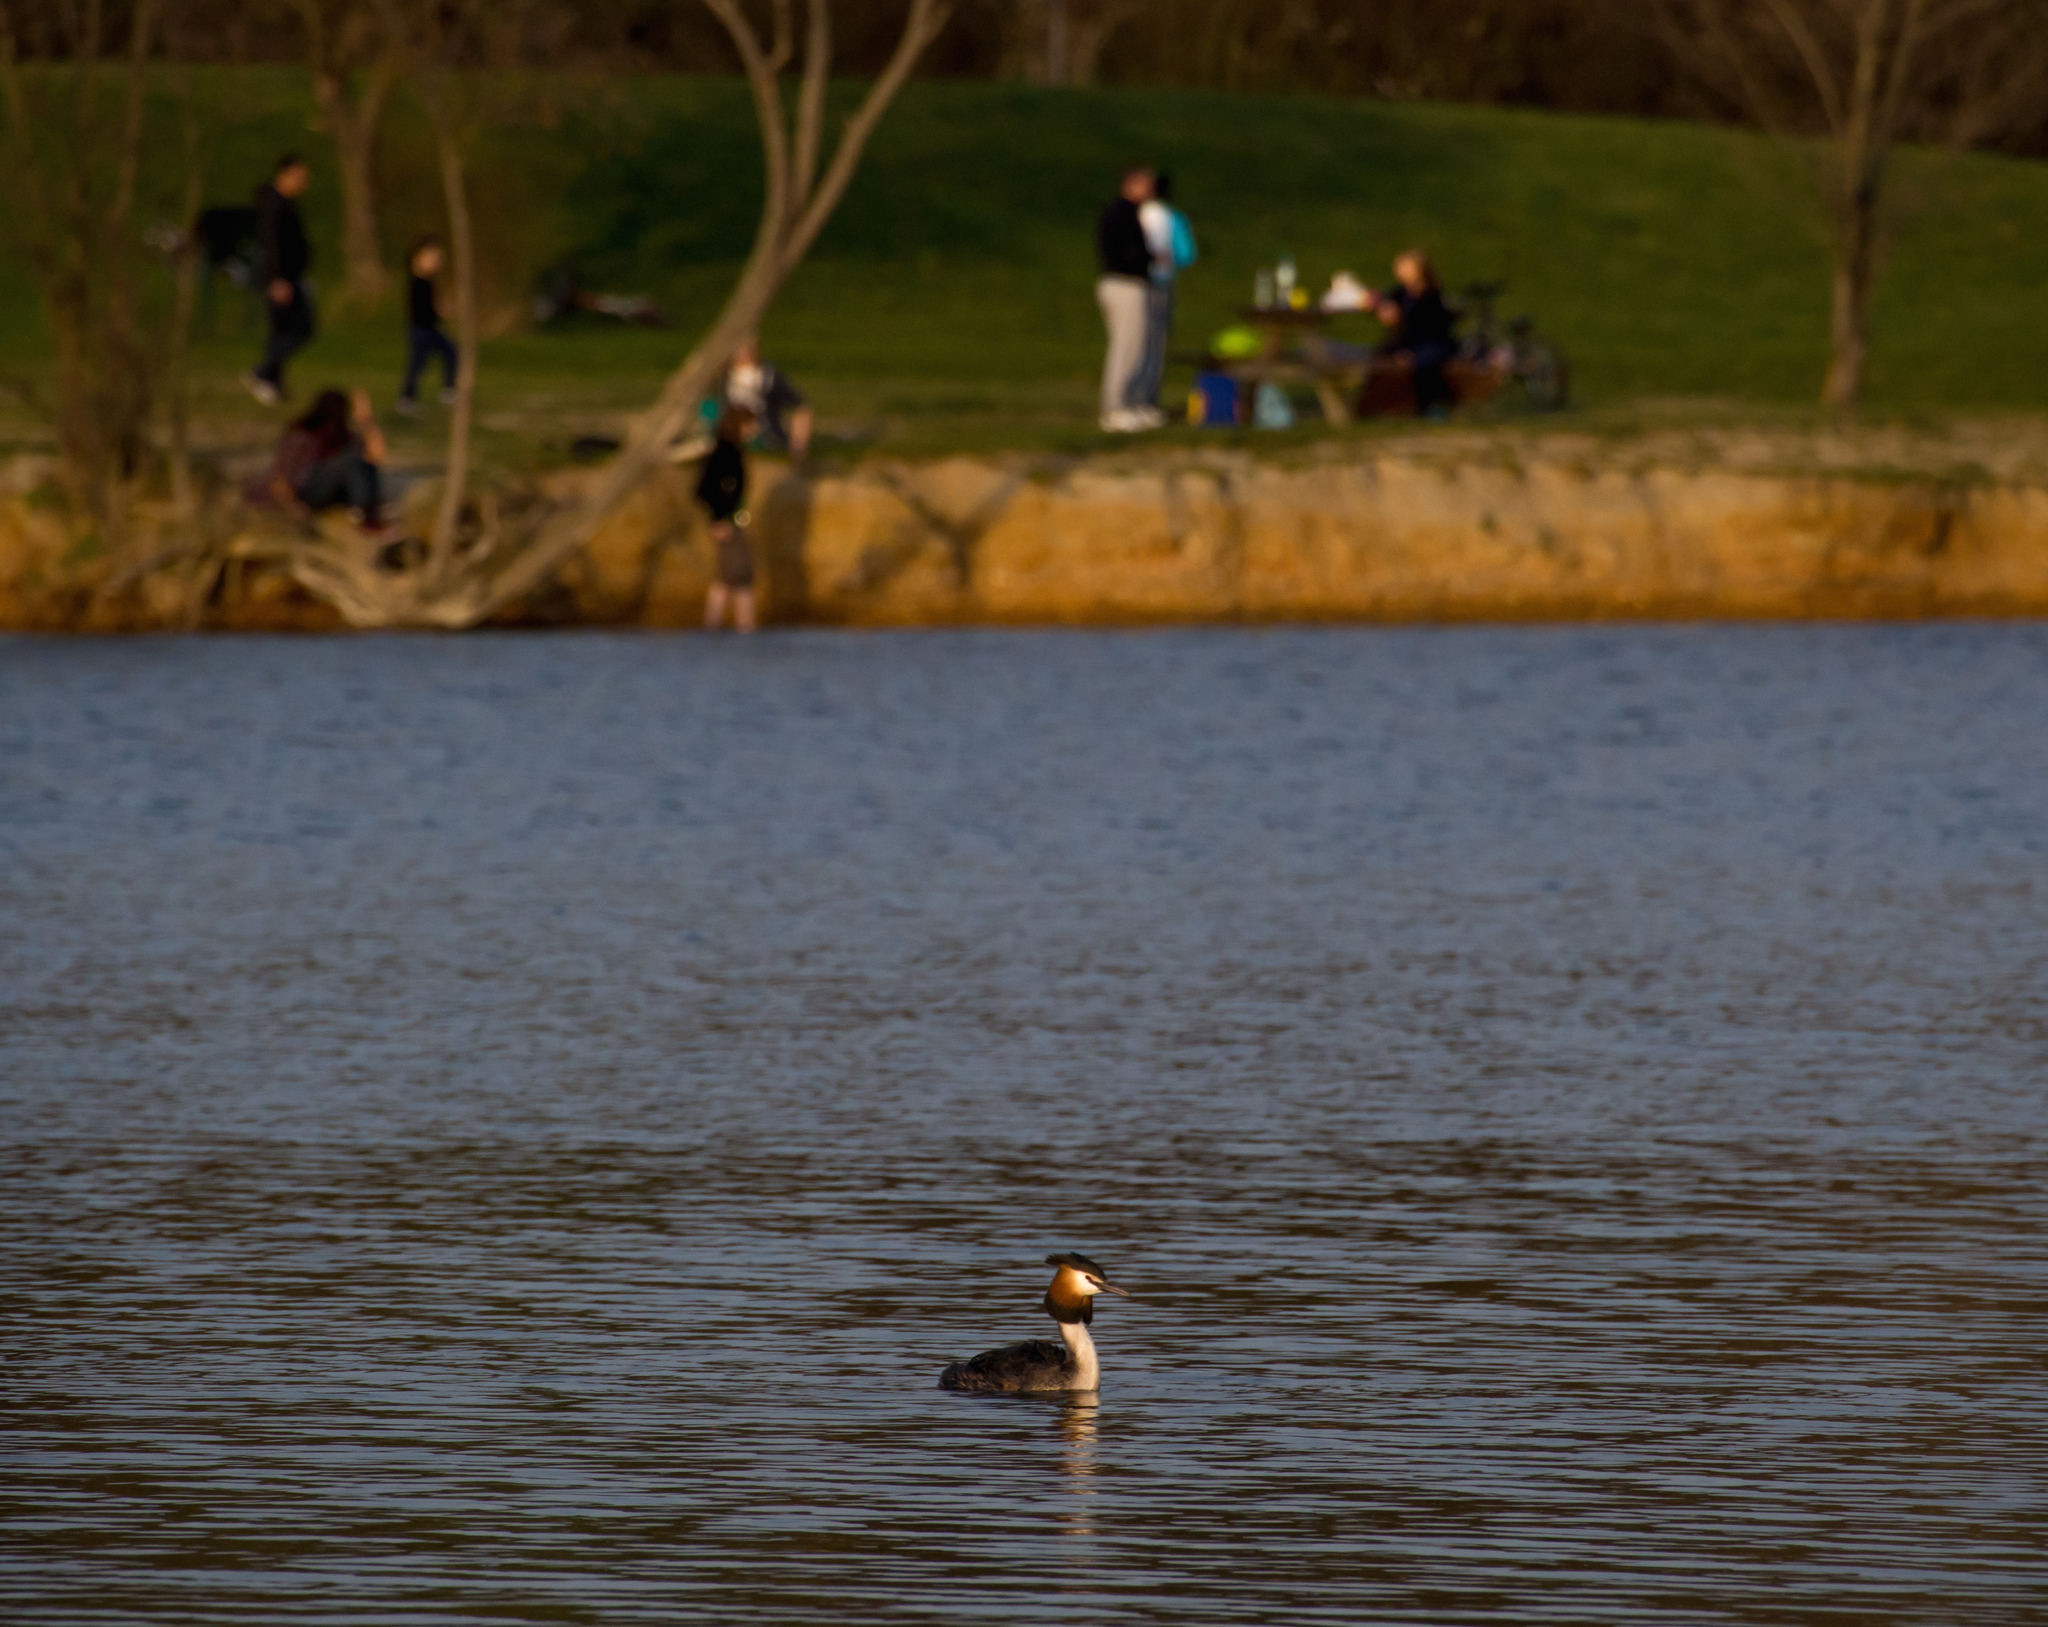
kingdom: Animalia
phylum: Chordata
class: Aves
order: Podicipediformes
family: Podicipedidae
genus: Podiceps
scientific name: Podiceps cristatus
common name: Great crested grebe
